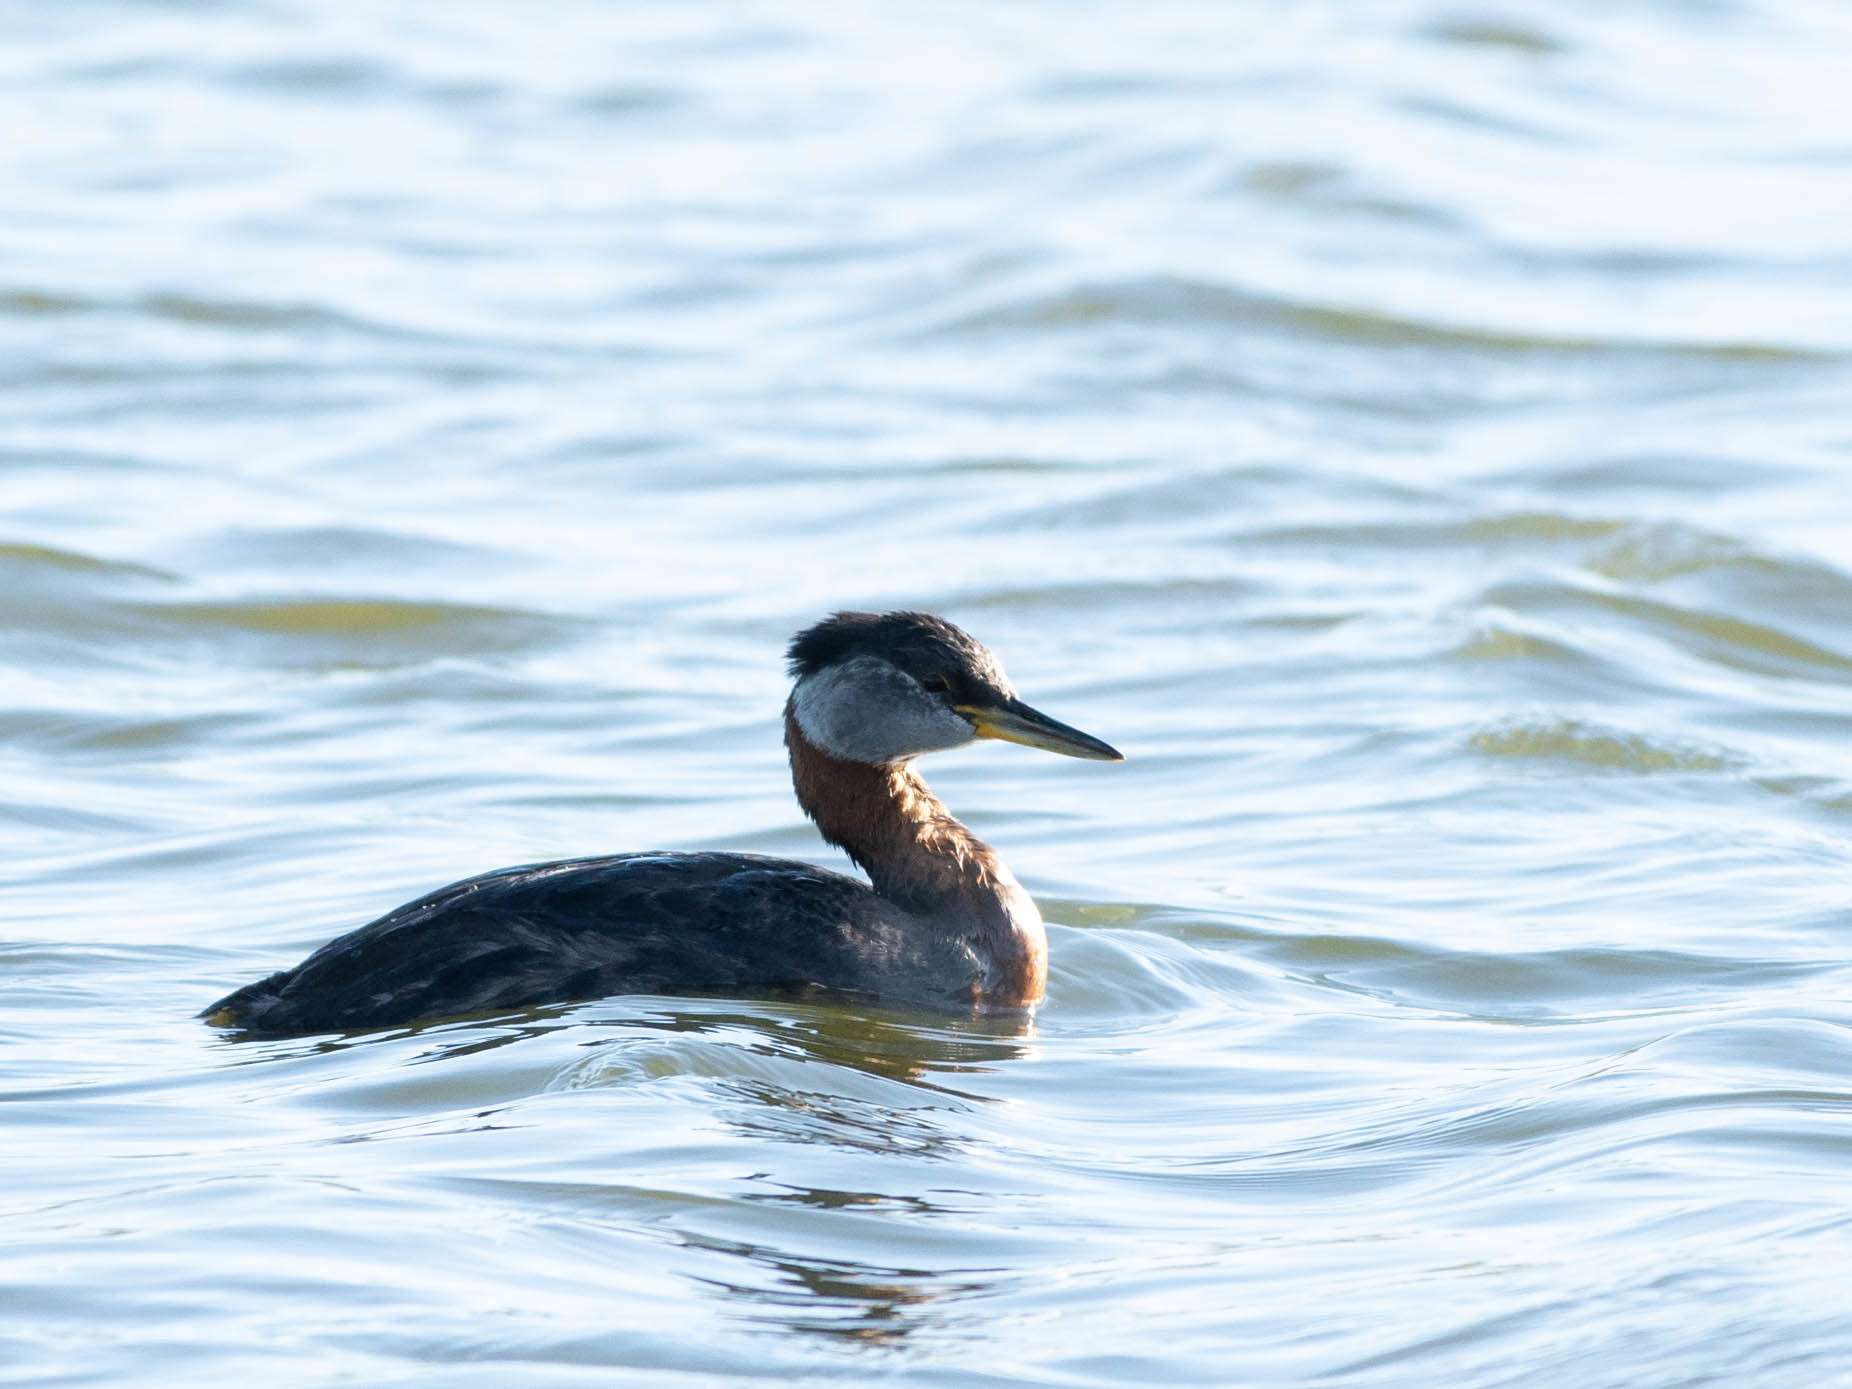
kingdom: Animalia
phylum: Chordata
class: Aves
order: Podicipediformes
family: Podicipedidae
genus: Podiceps
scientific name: Podiceps grisegena
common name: Red-necked grebe
